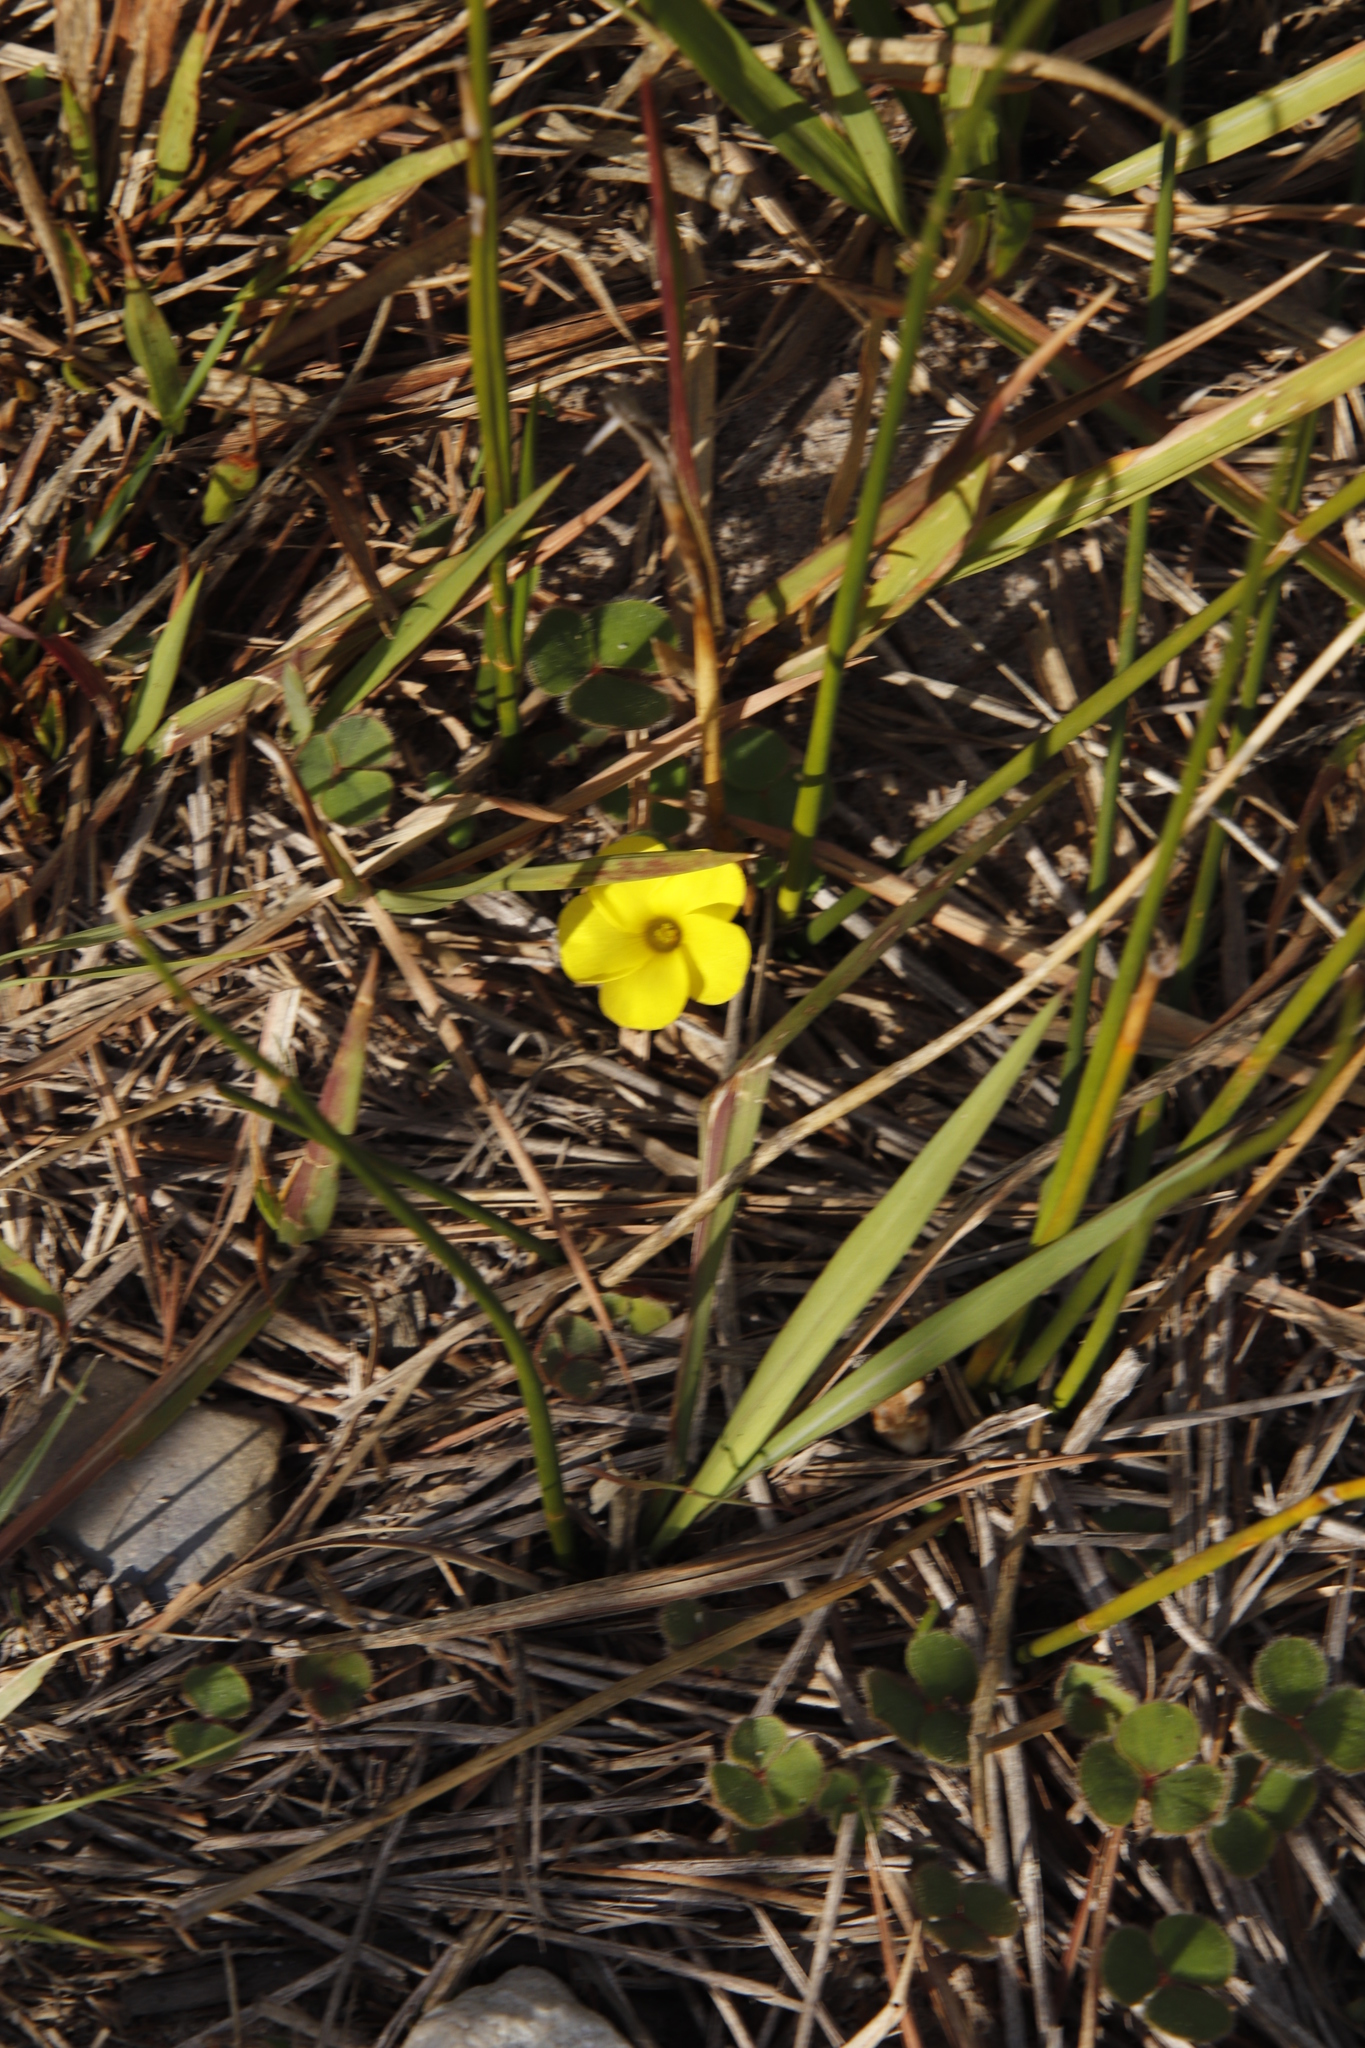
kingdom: Plantae
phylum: Tracheophyta
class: Magnoliopsida
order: Oxalidales
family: Oxalidaceae
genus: Oxalis
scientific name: Oxalis luteola
